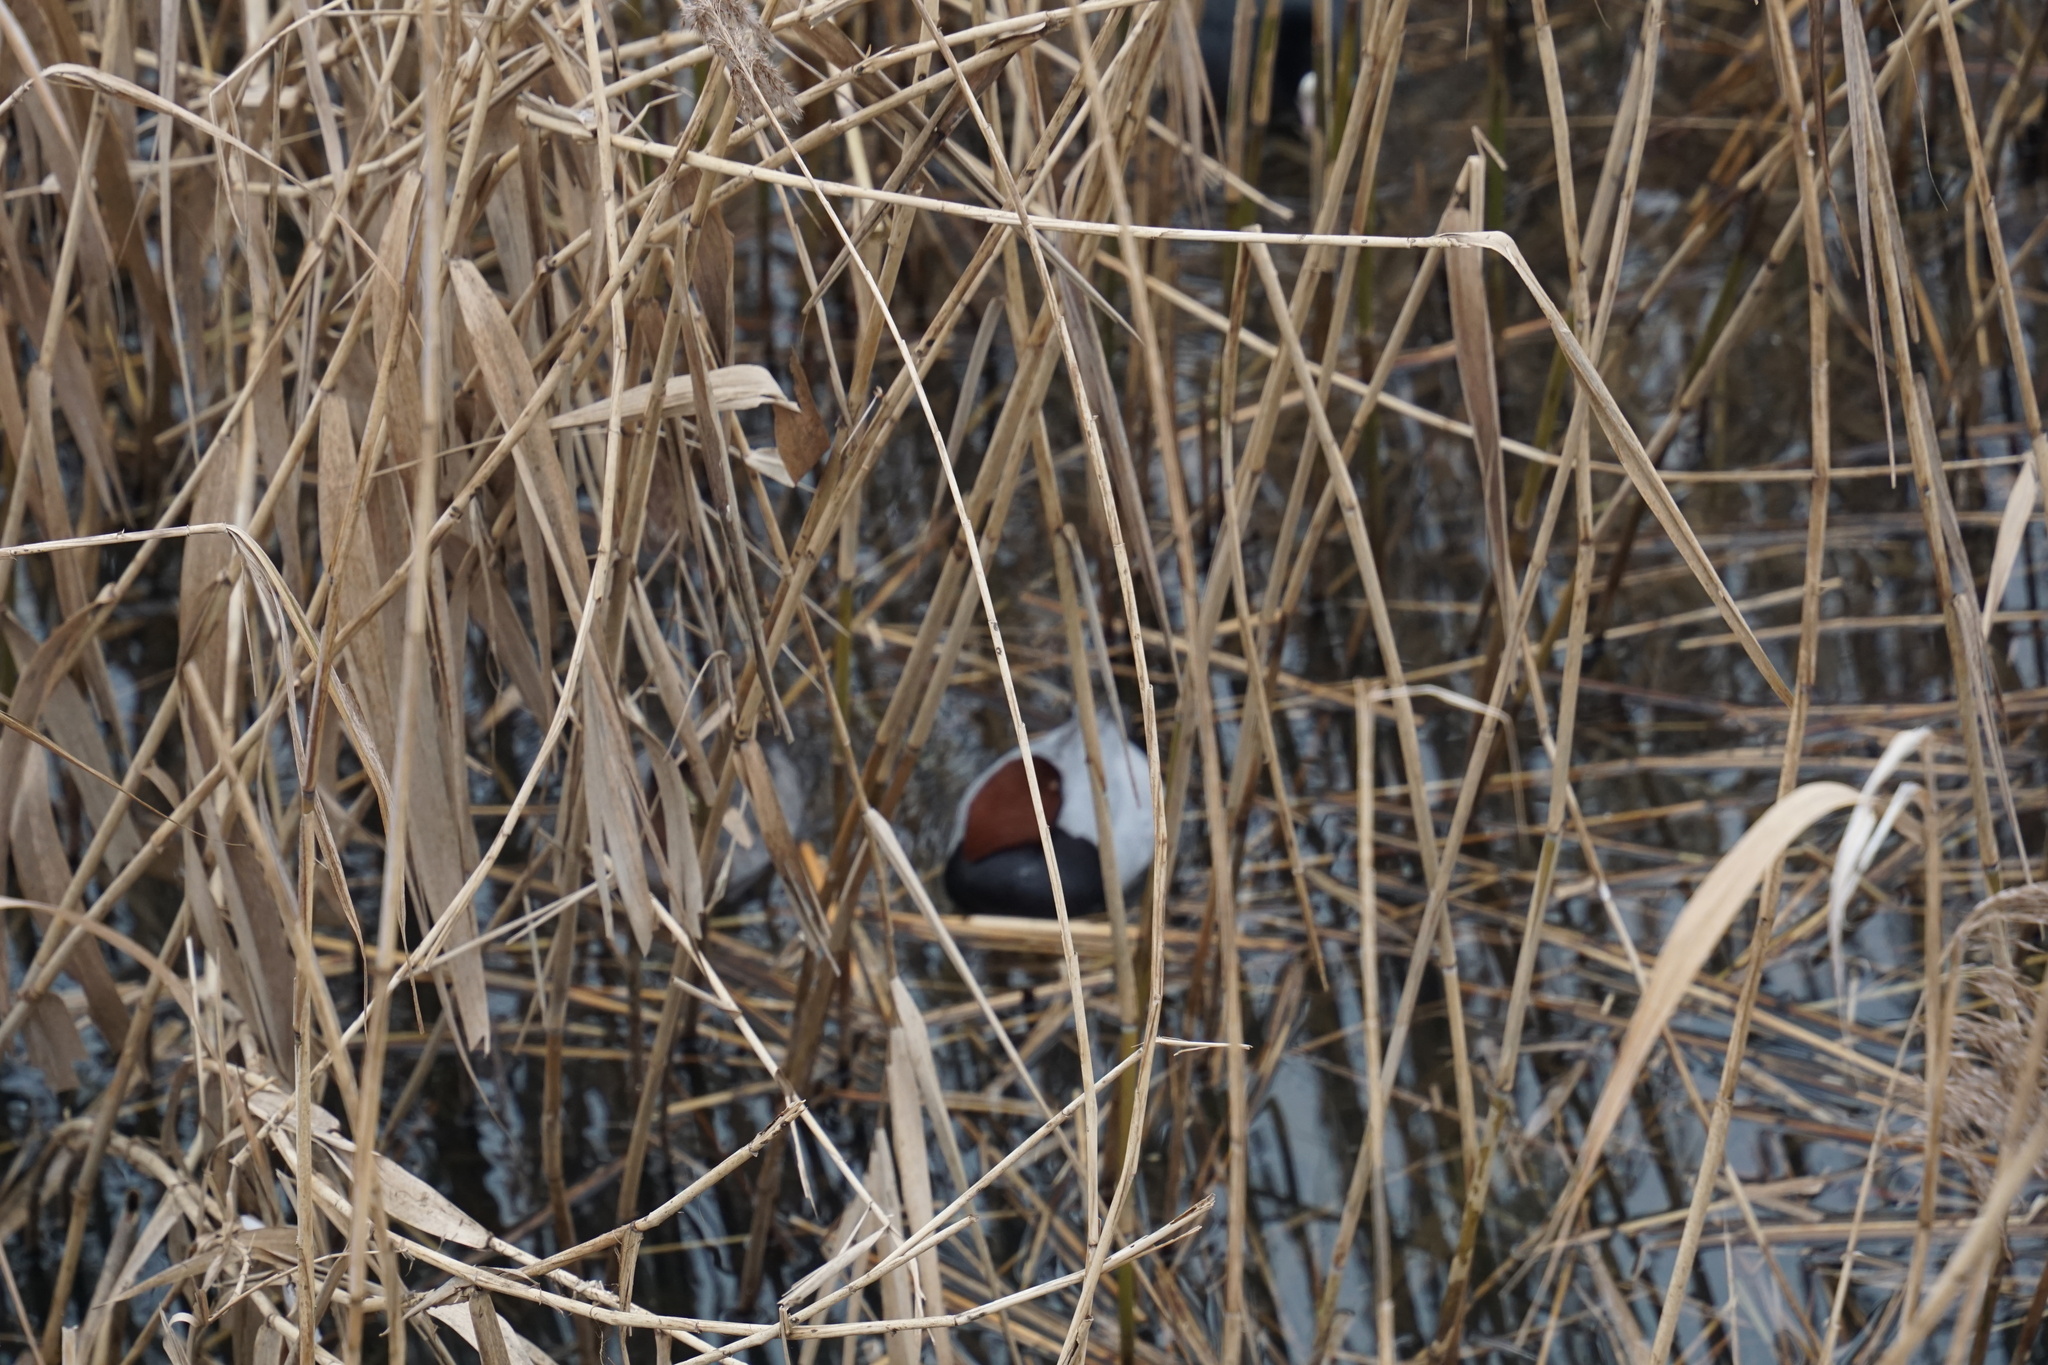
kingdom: Animalia
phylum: Chordata
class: Aves
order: Anseriformes
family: Anatidae
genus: Aythya
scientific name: Aythya ferina
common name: Common pochard
